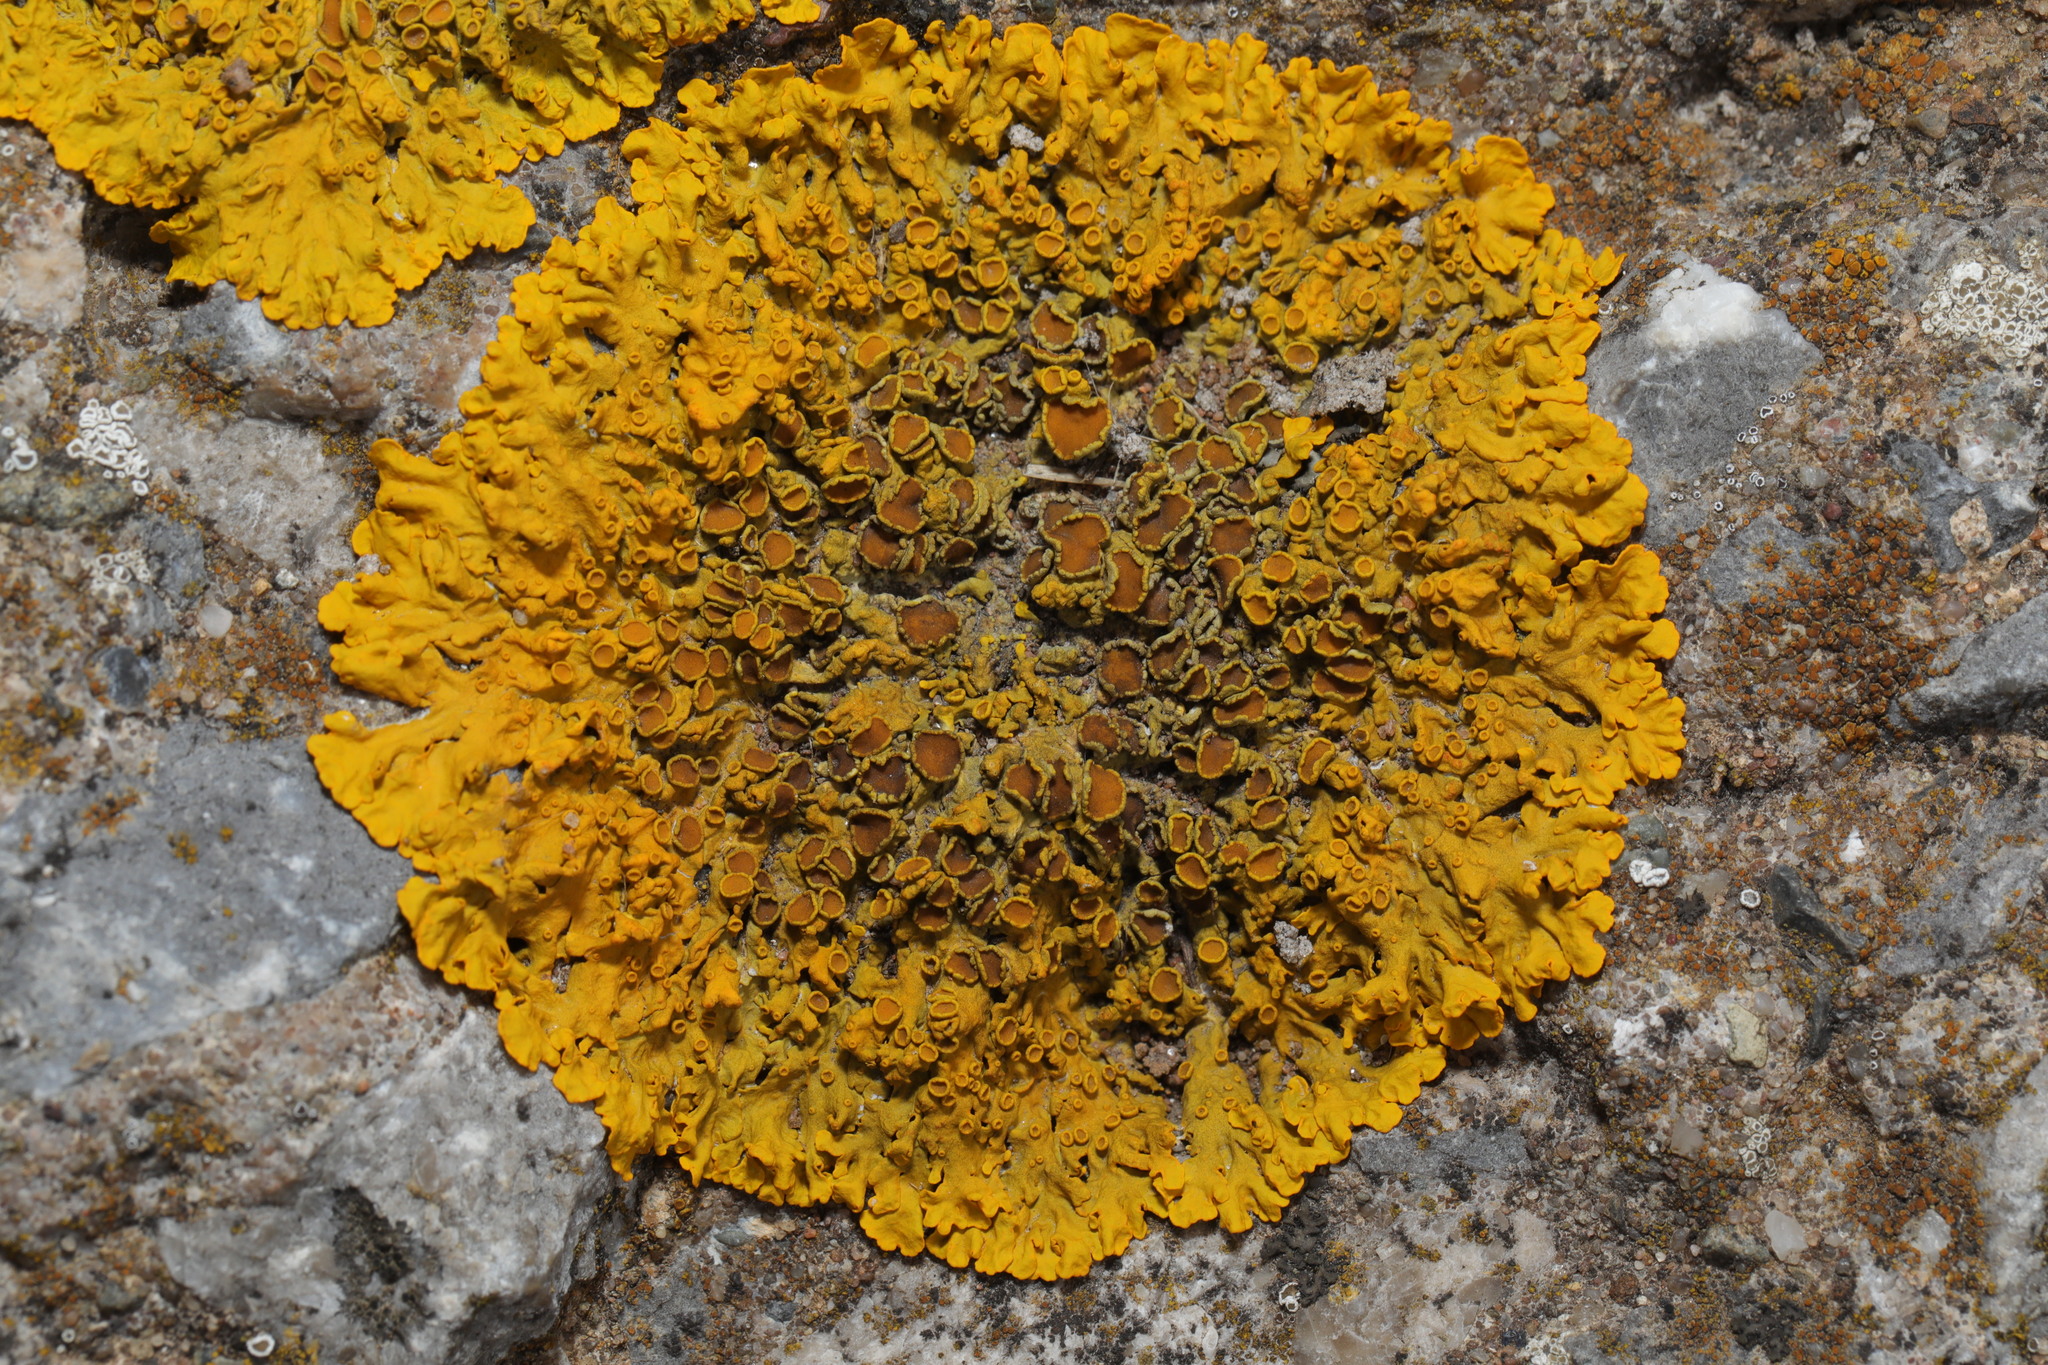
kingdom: Fungi
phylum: Ascomycota
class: Lecanoromycetes
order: Teloschistales
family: Teloschistaceae
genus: Xanthoria
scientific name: Xanthoria parietina
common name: Common orange lichen
